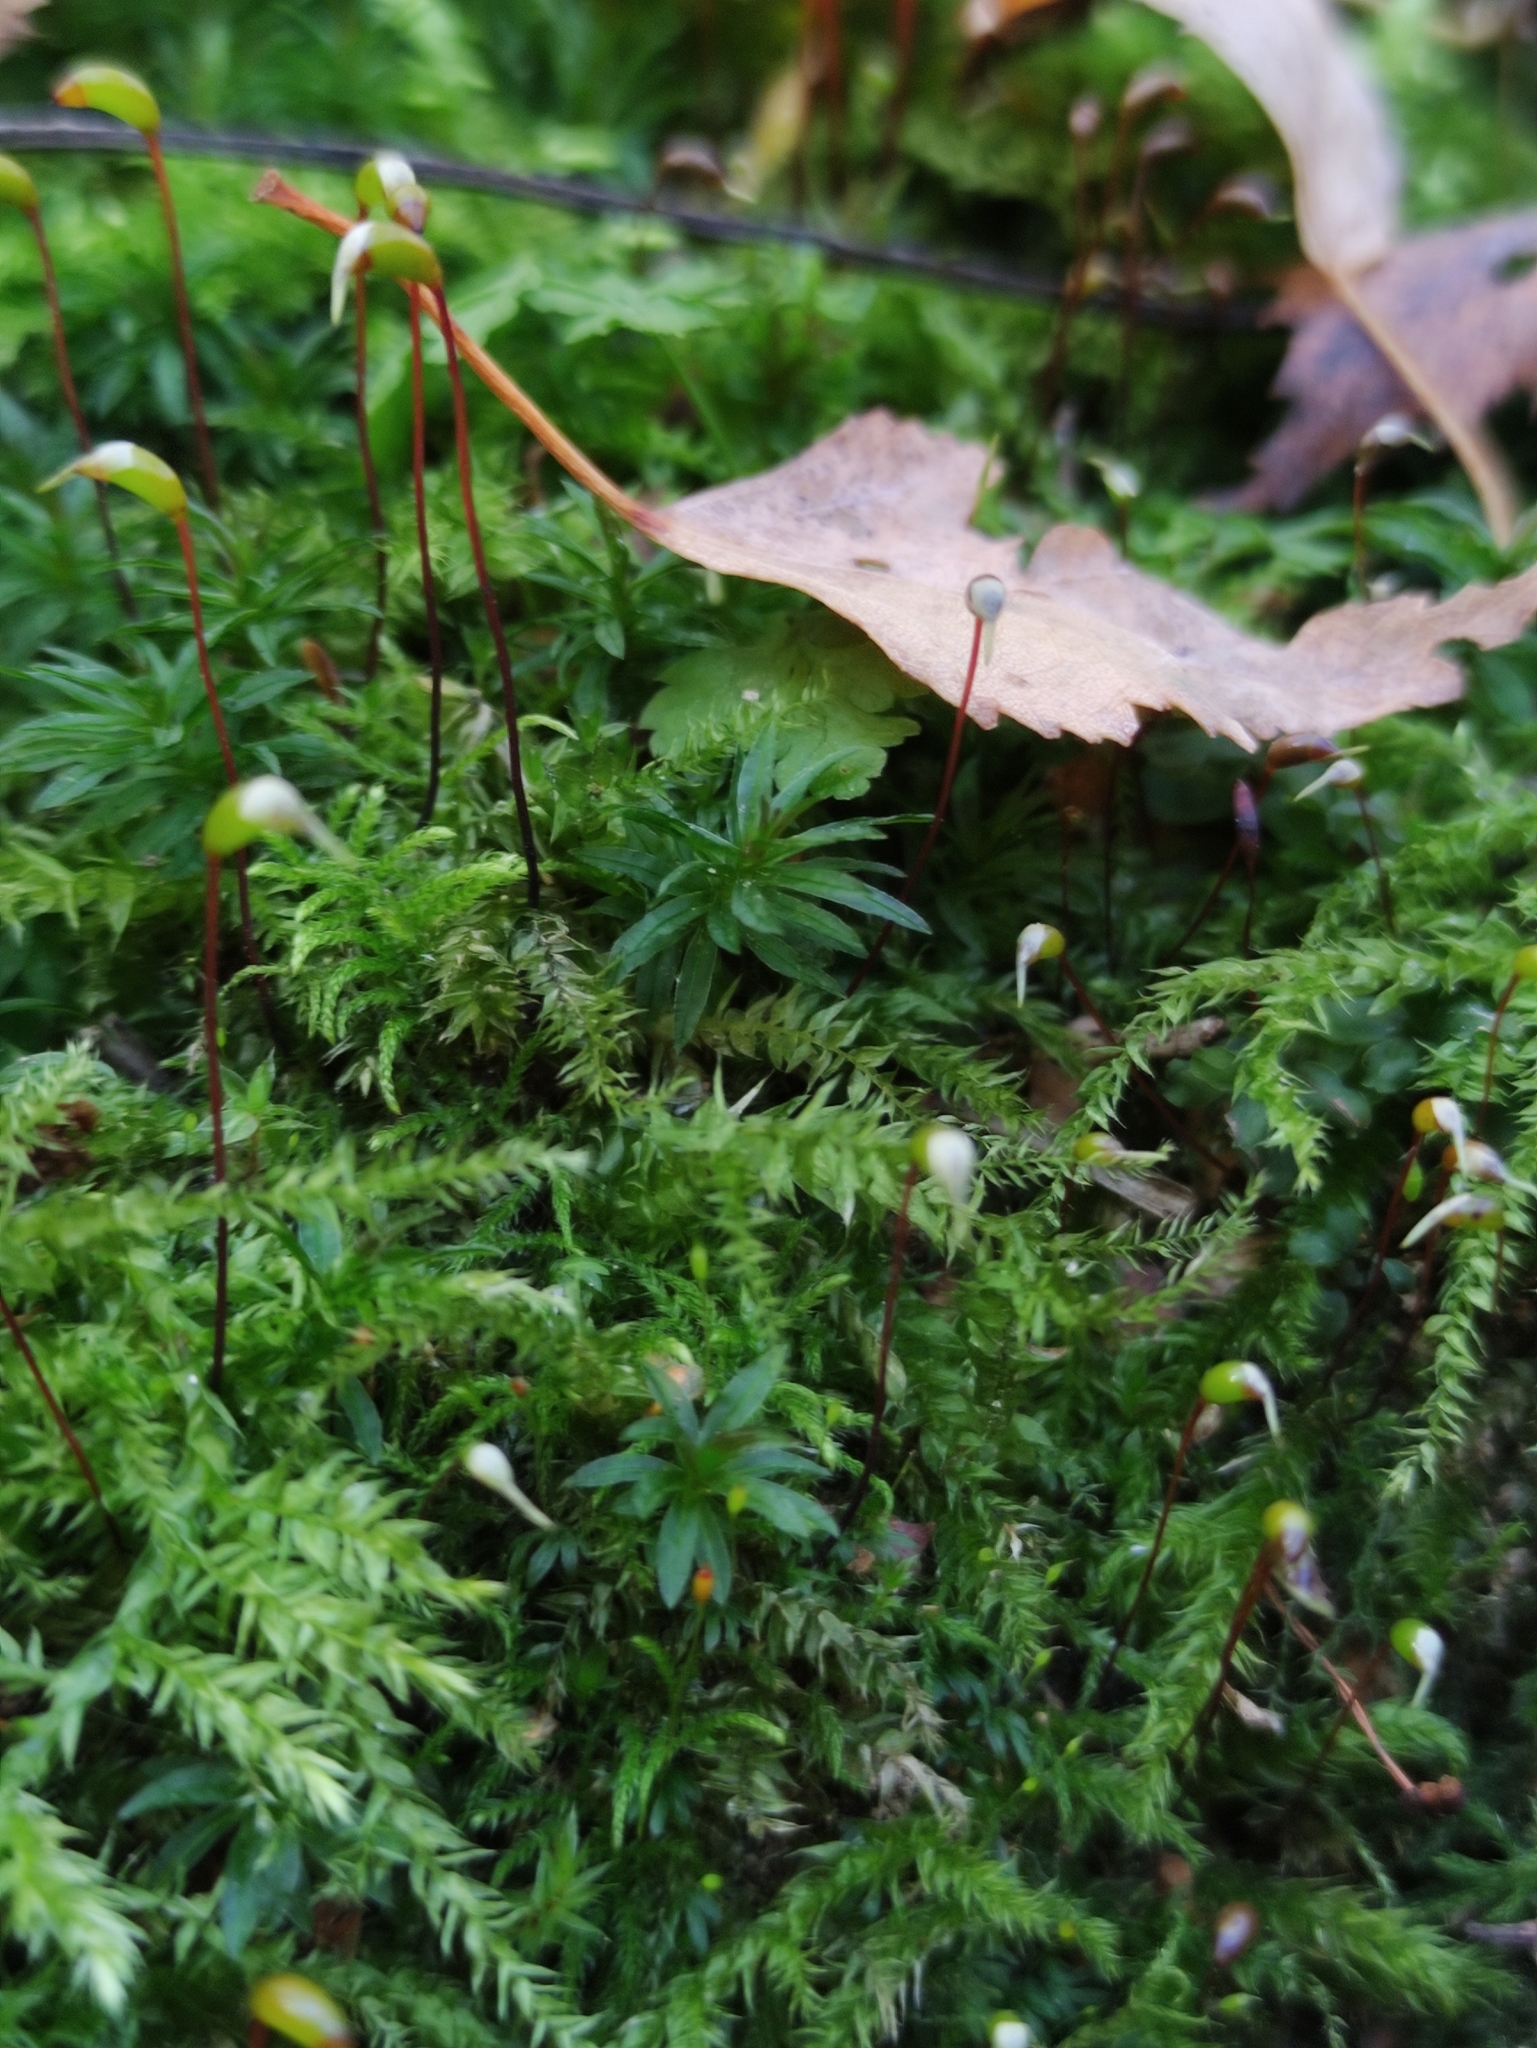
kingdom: Plantae
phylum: Bryophyta
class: Bryopsida
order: Hypnales
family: Brachytheciaceae
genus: Brachythecium
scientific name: Brachythecium rutabulum
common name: Rough-stalked feather-moss
